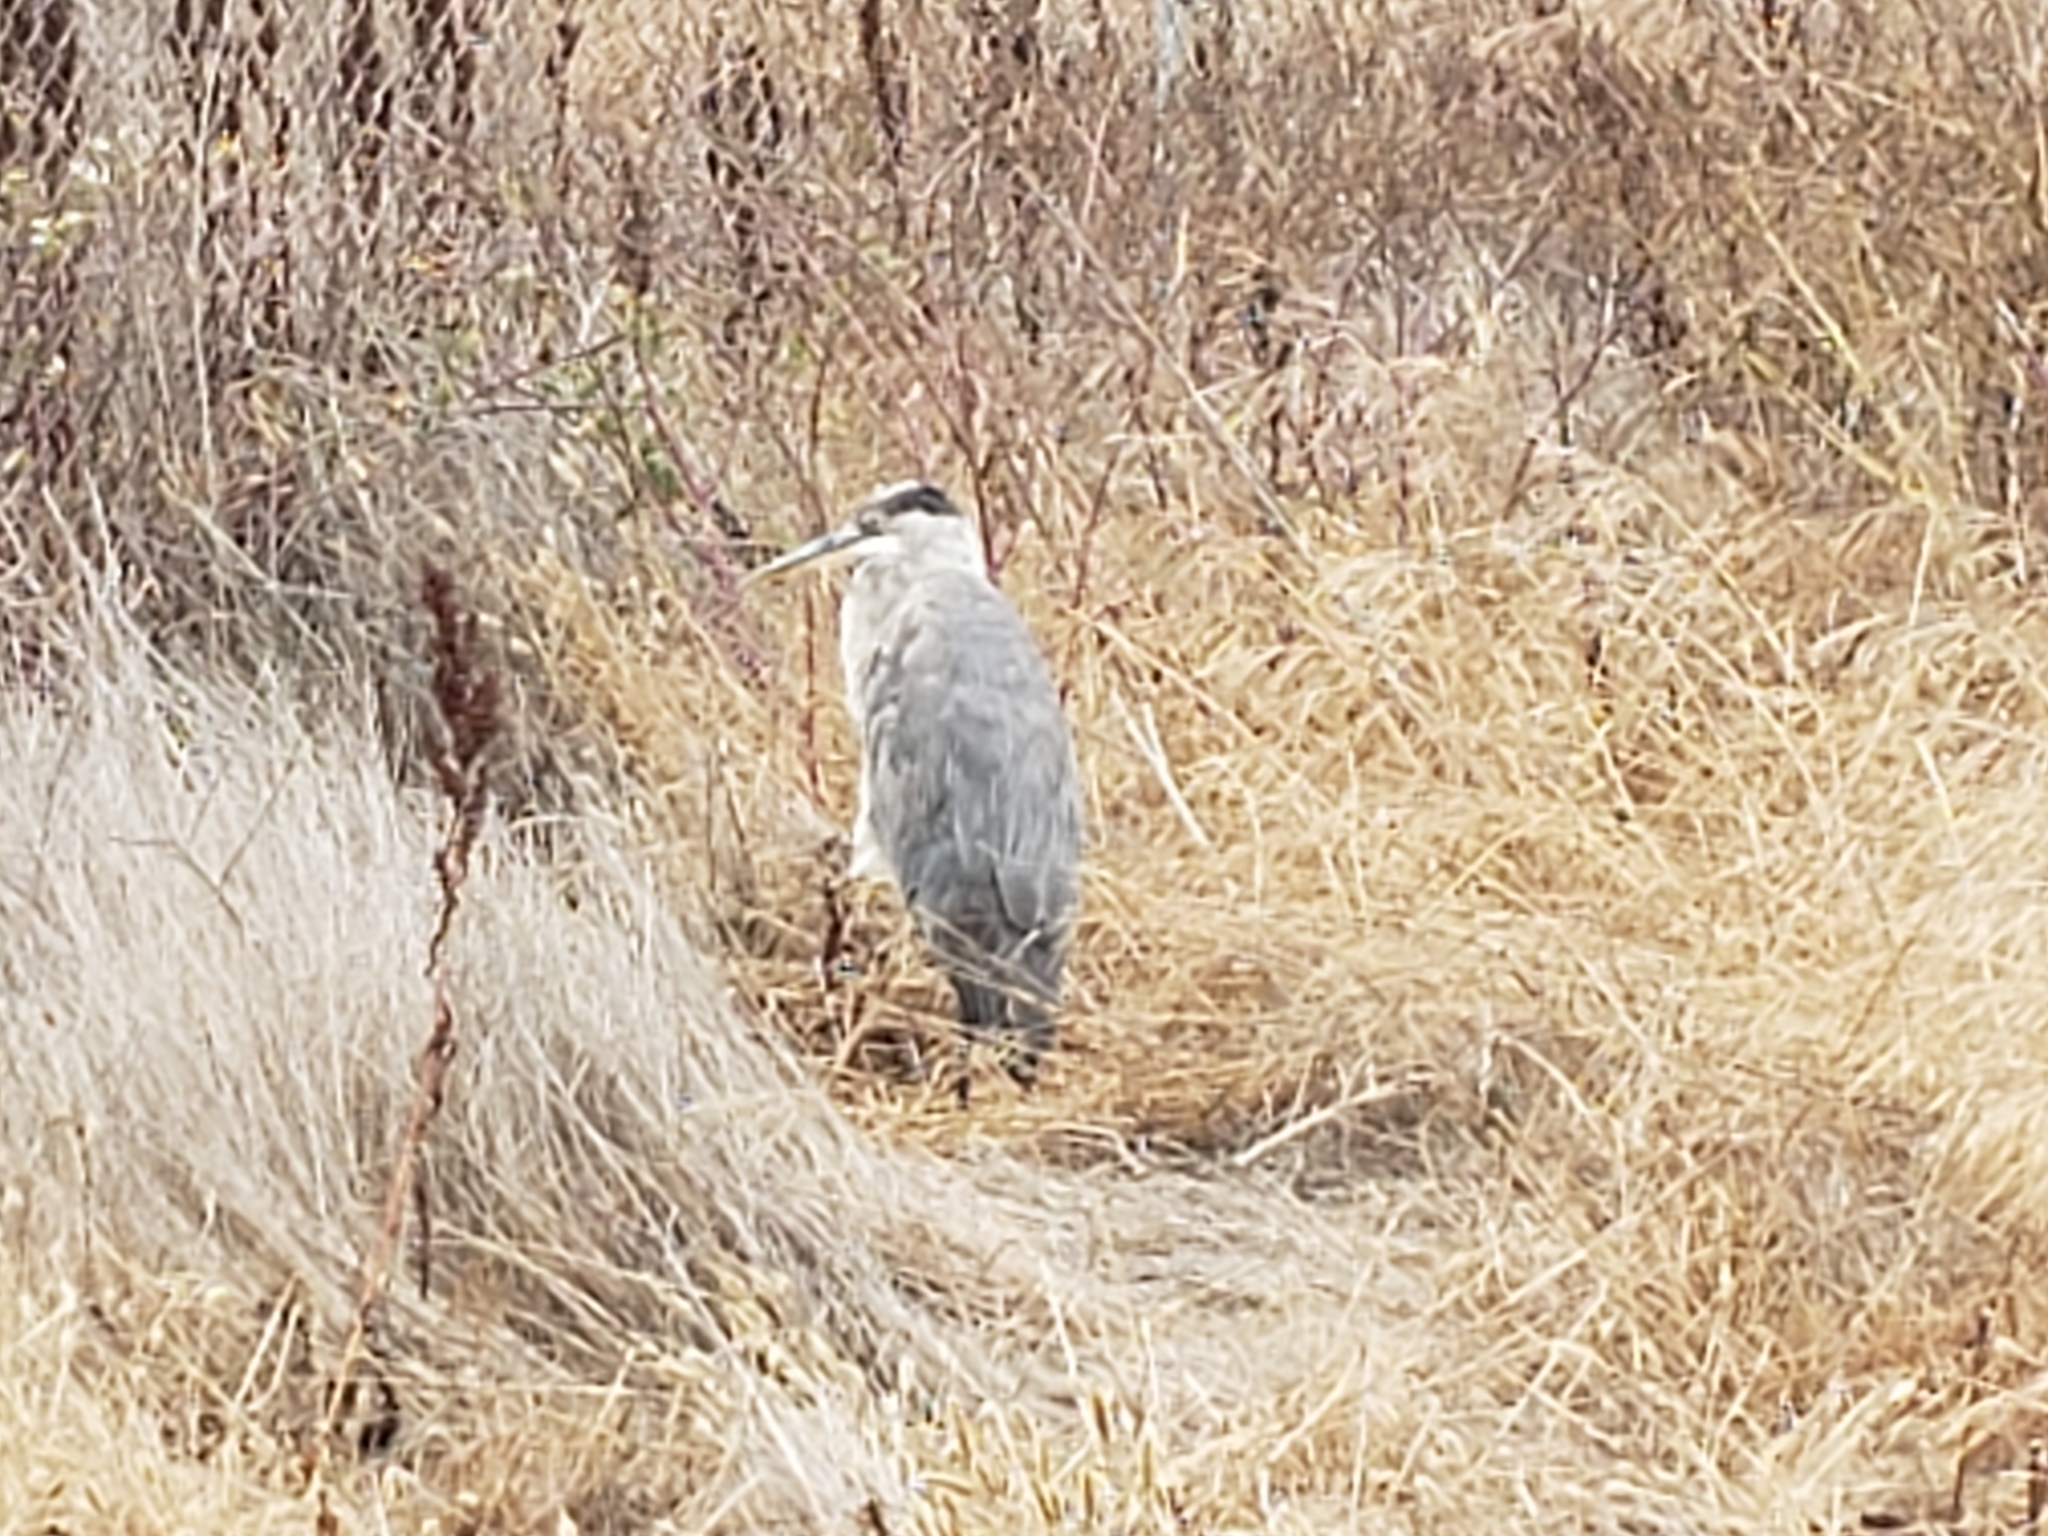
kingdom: Animalia
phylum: Chordata
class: Aves
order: Pelecaniformes
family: Ardeidae
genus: Ardea
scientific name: Ardea herodias
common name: Great blue heron
